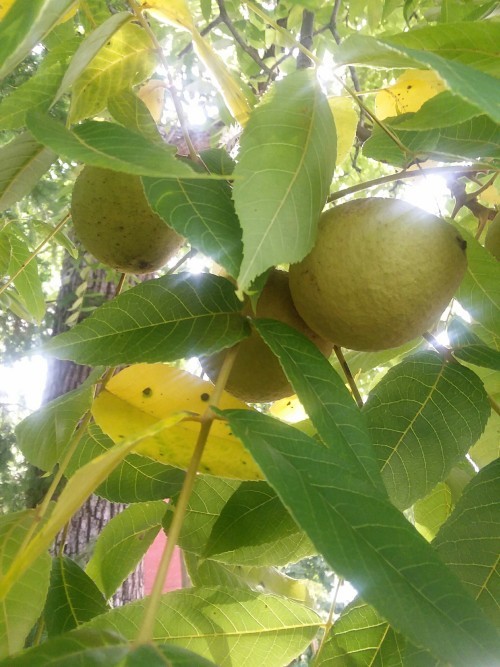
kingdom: Plantae
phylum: Tracheophyta
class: Magnoliopsida
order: Fagales
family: Juglandaceae
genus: Juglans
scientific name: Juglans nigra
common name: Black walnut
